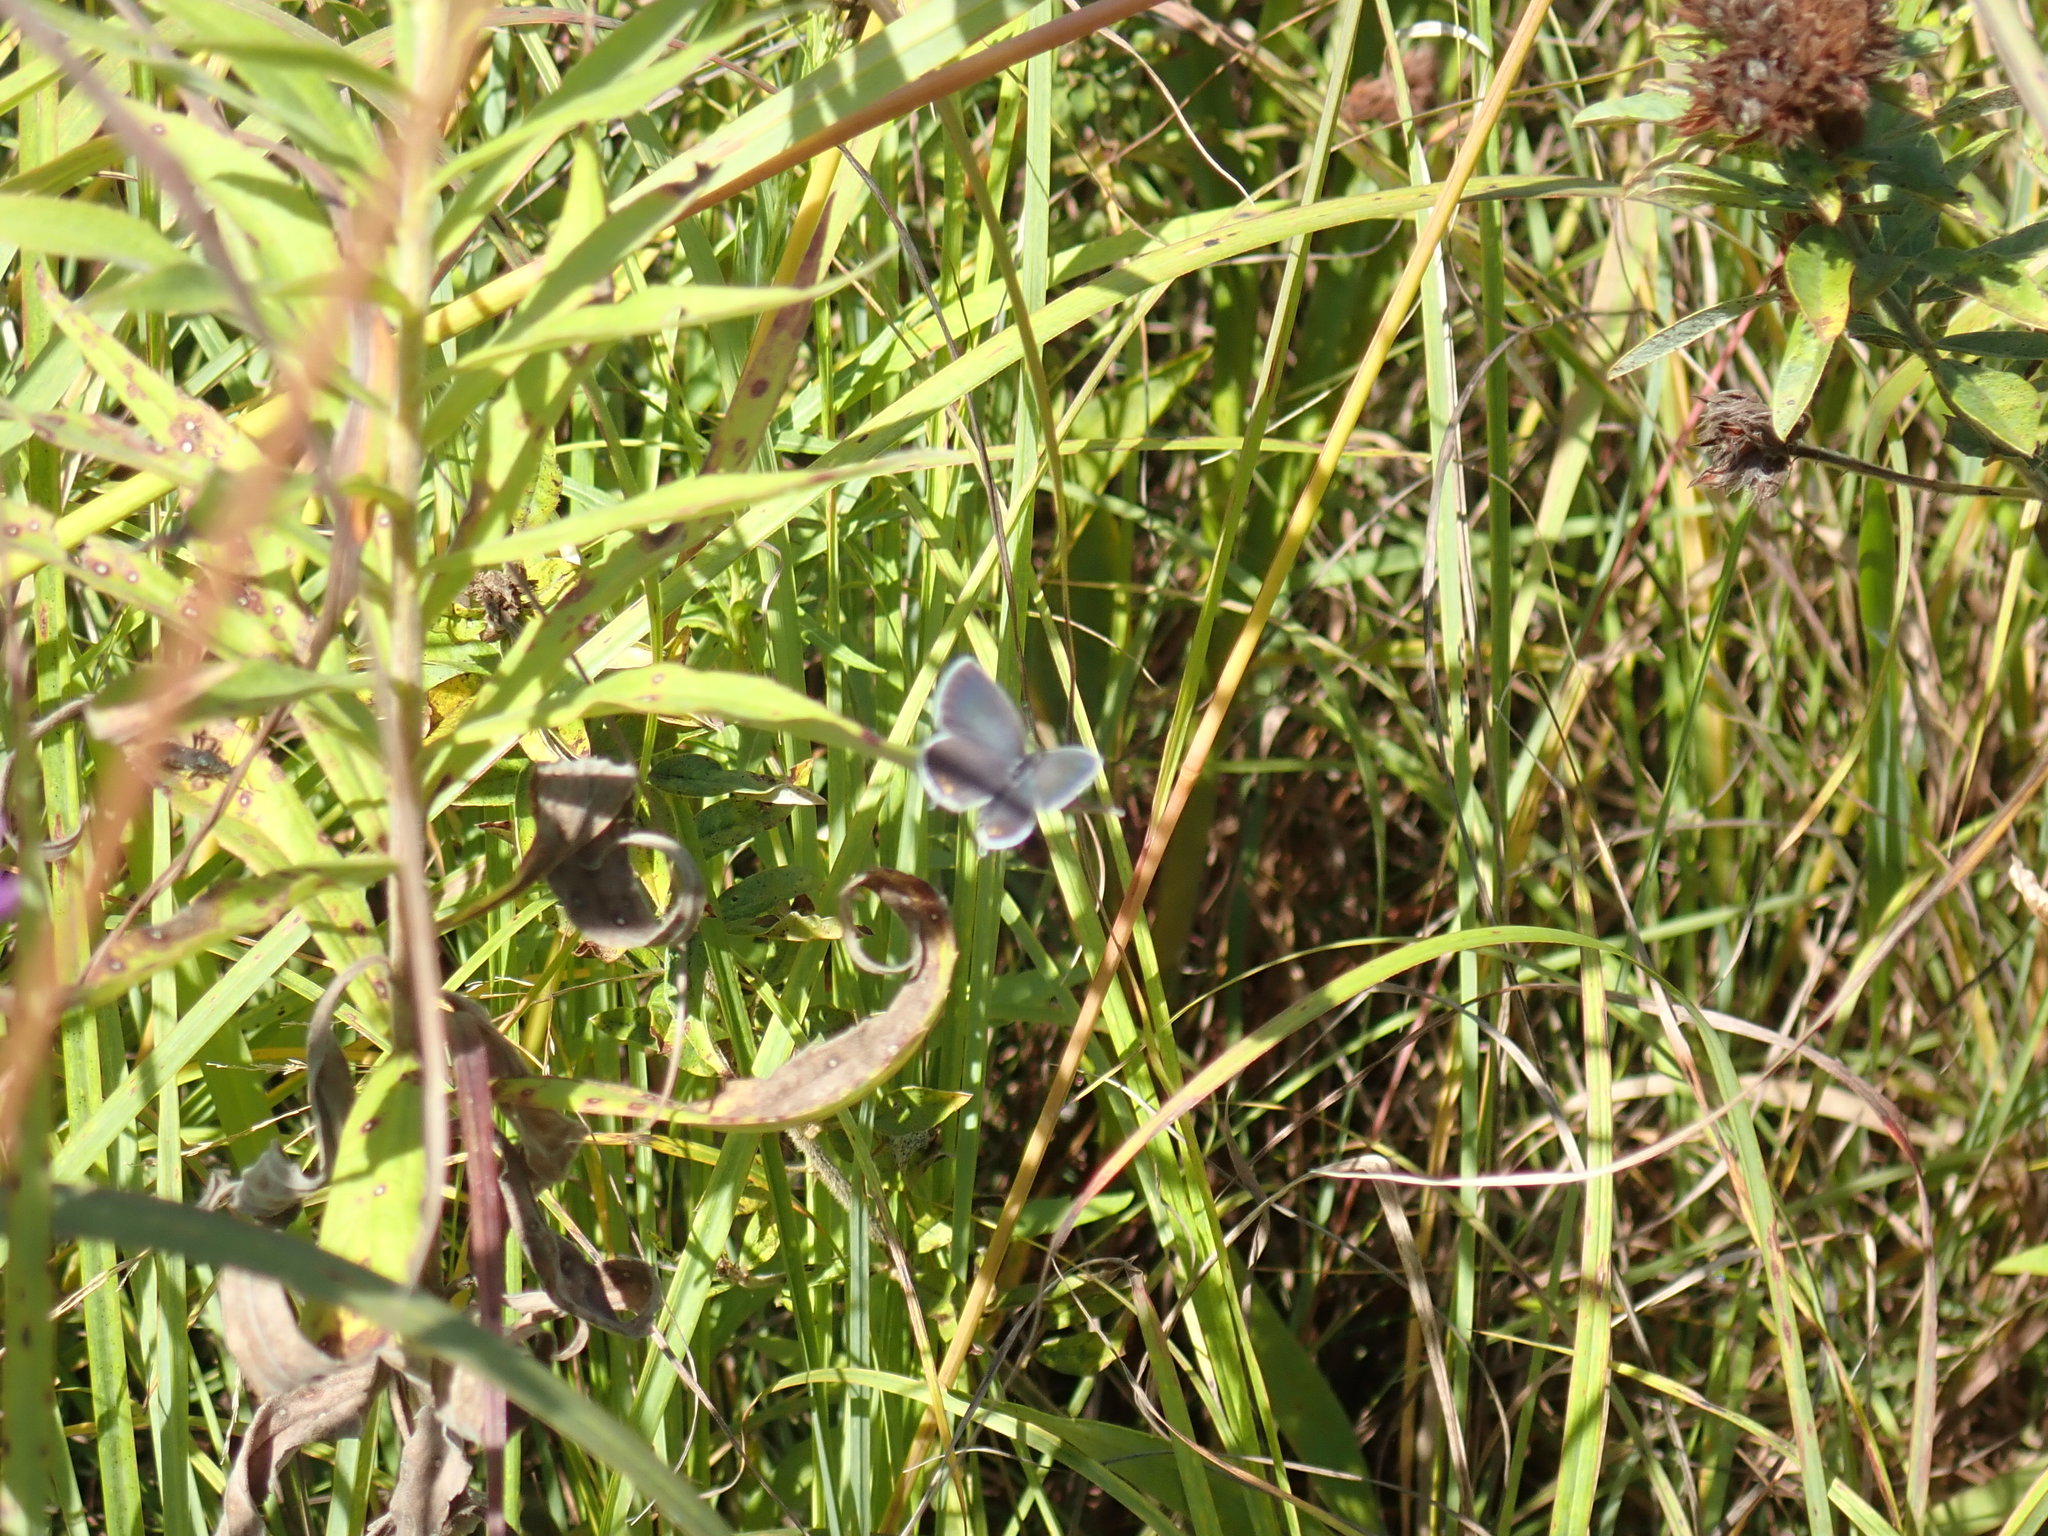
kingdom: Animalia
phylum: Arthropoda
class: Insecta
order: Lepidoptera
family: Lycaenidae
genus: Elkalyce
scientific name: Elkalyce comyntas
